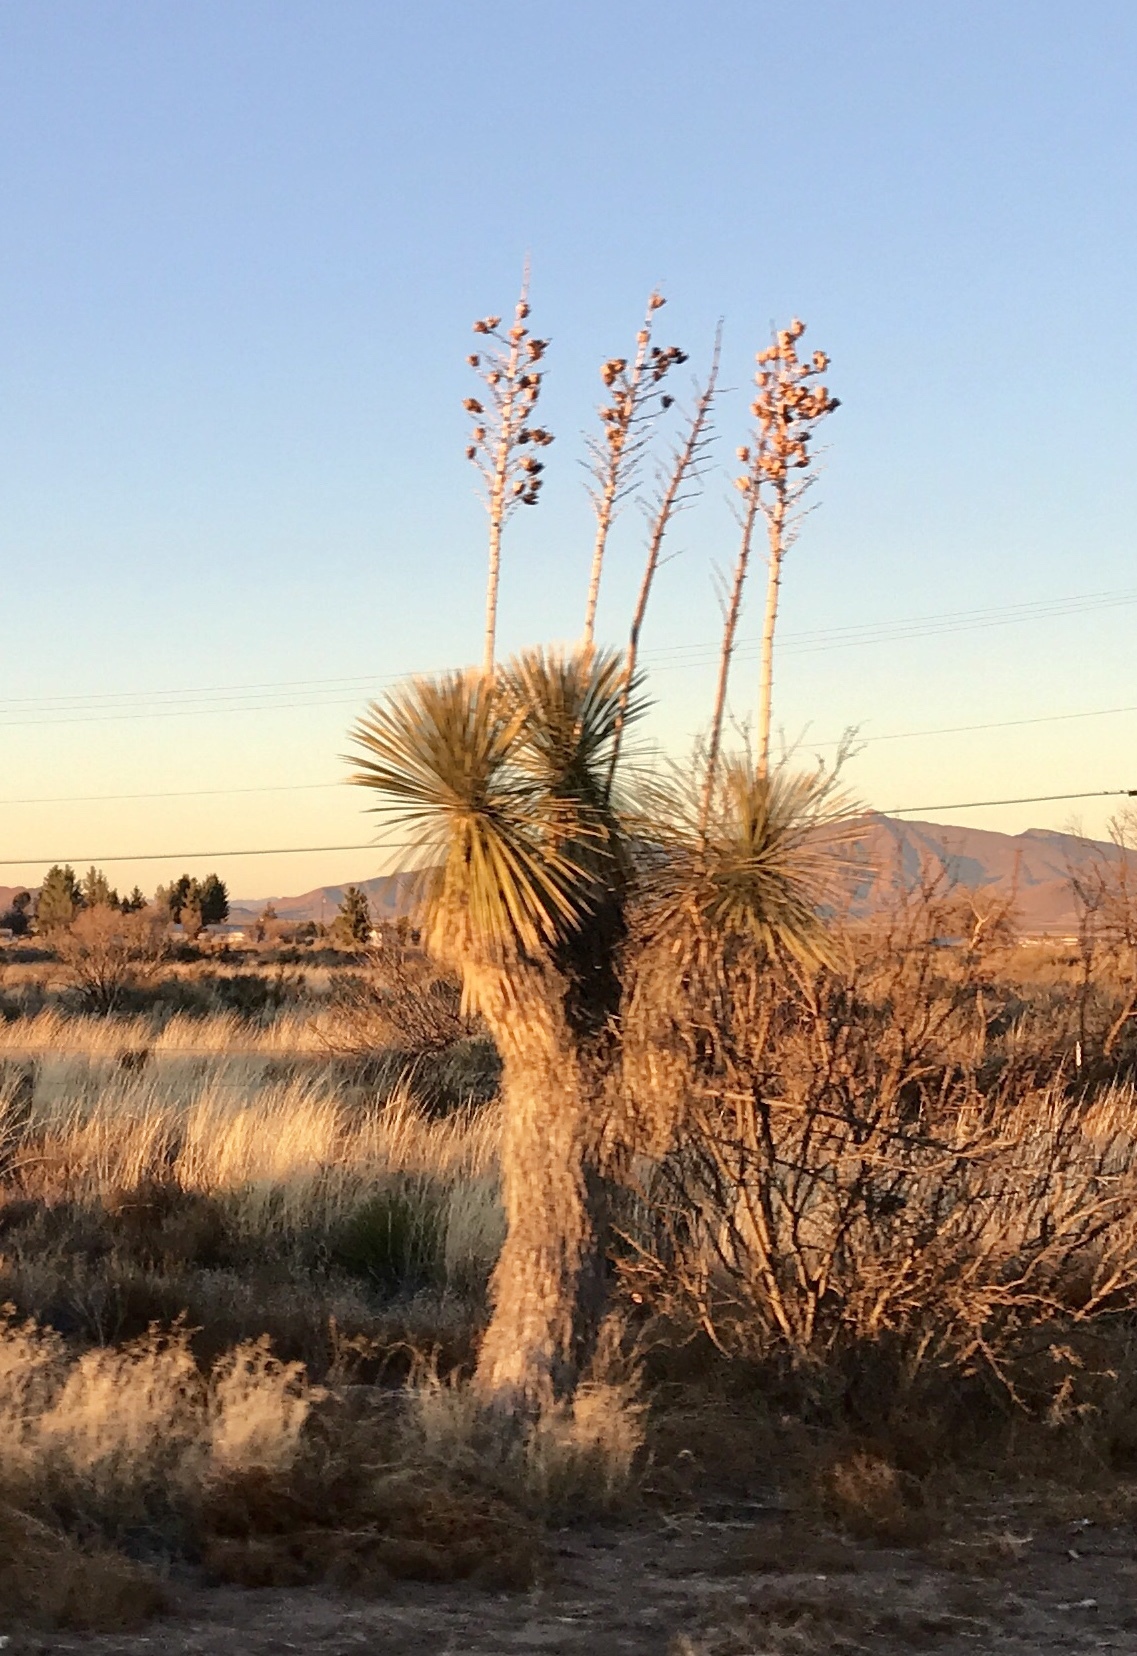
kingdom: Plantae
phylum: Tracheophyta
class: Liliopsida
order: Asparagales
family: Asparagaceae
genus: Yucca
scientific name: Yucca elata
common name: Palmella
